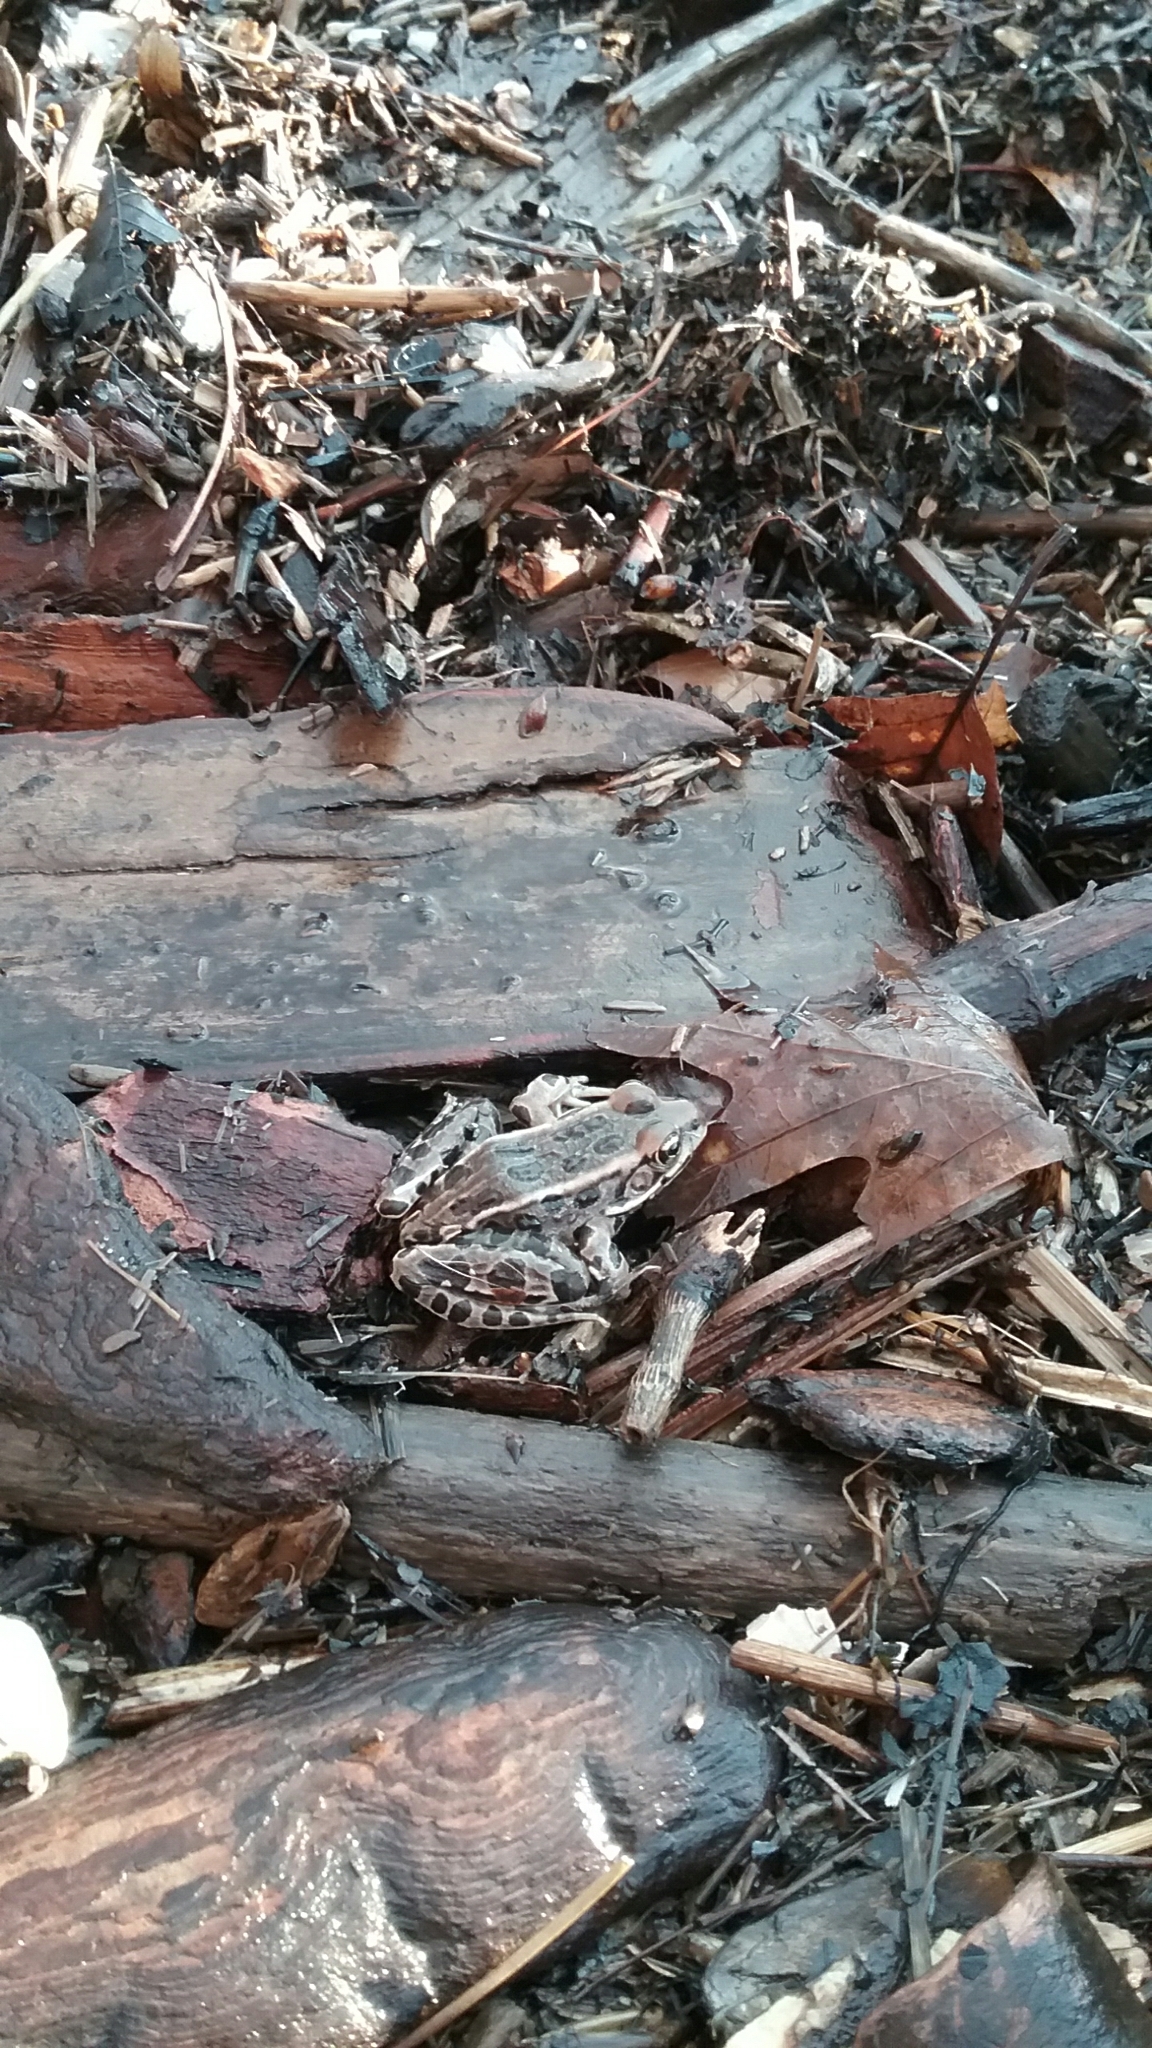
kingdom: Animalia
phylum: Chordata
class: Amphibia
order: Anura
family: Ranidae
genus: Lithobates
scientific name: Lithobates pipiens
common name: Northern leopard frog
